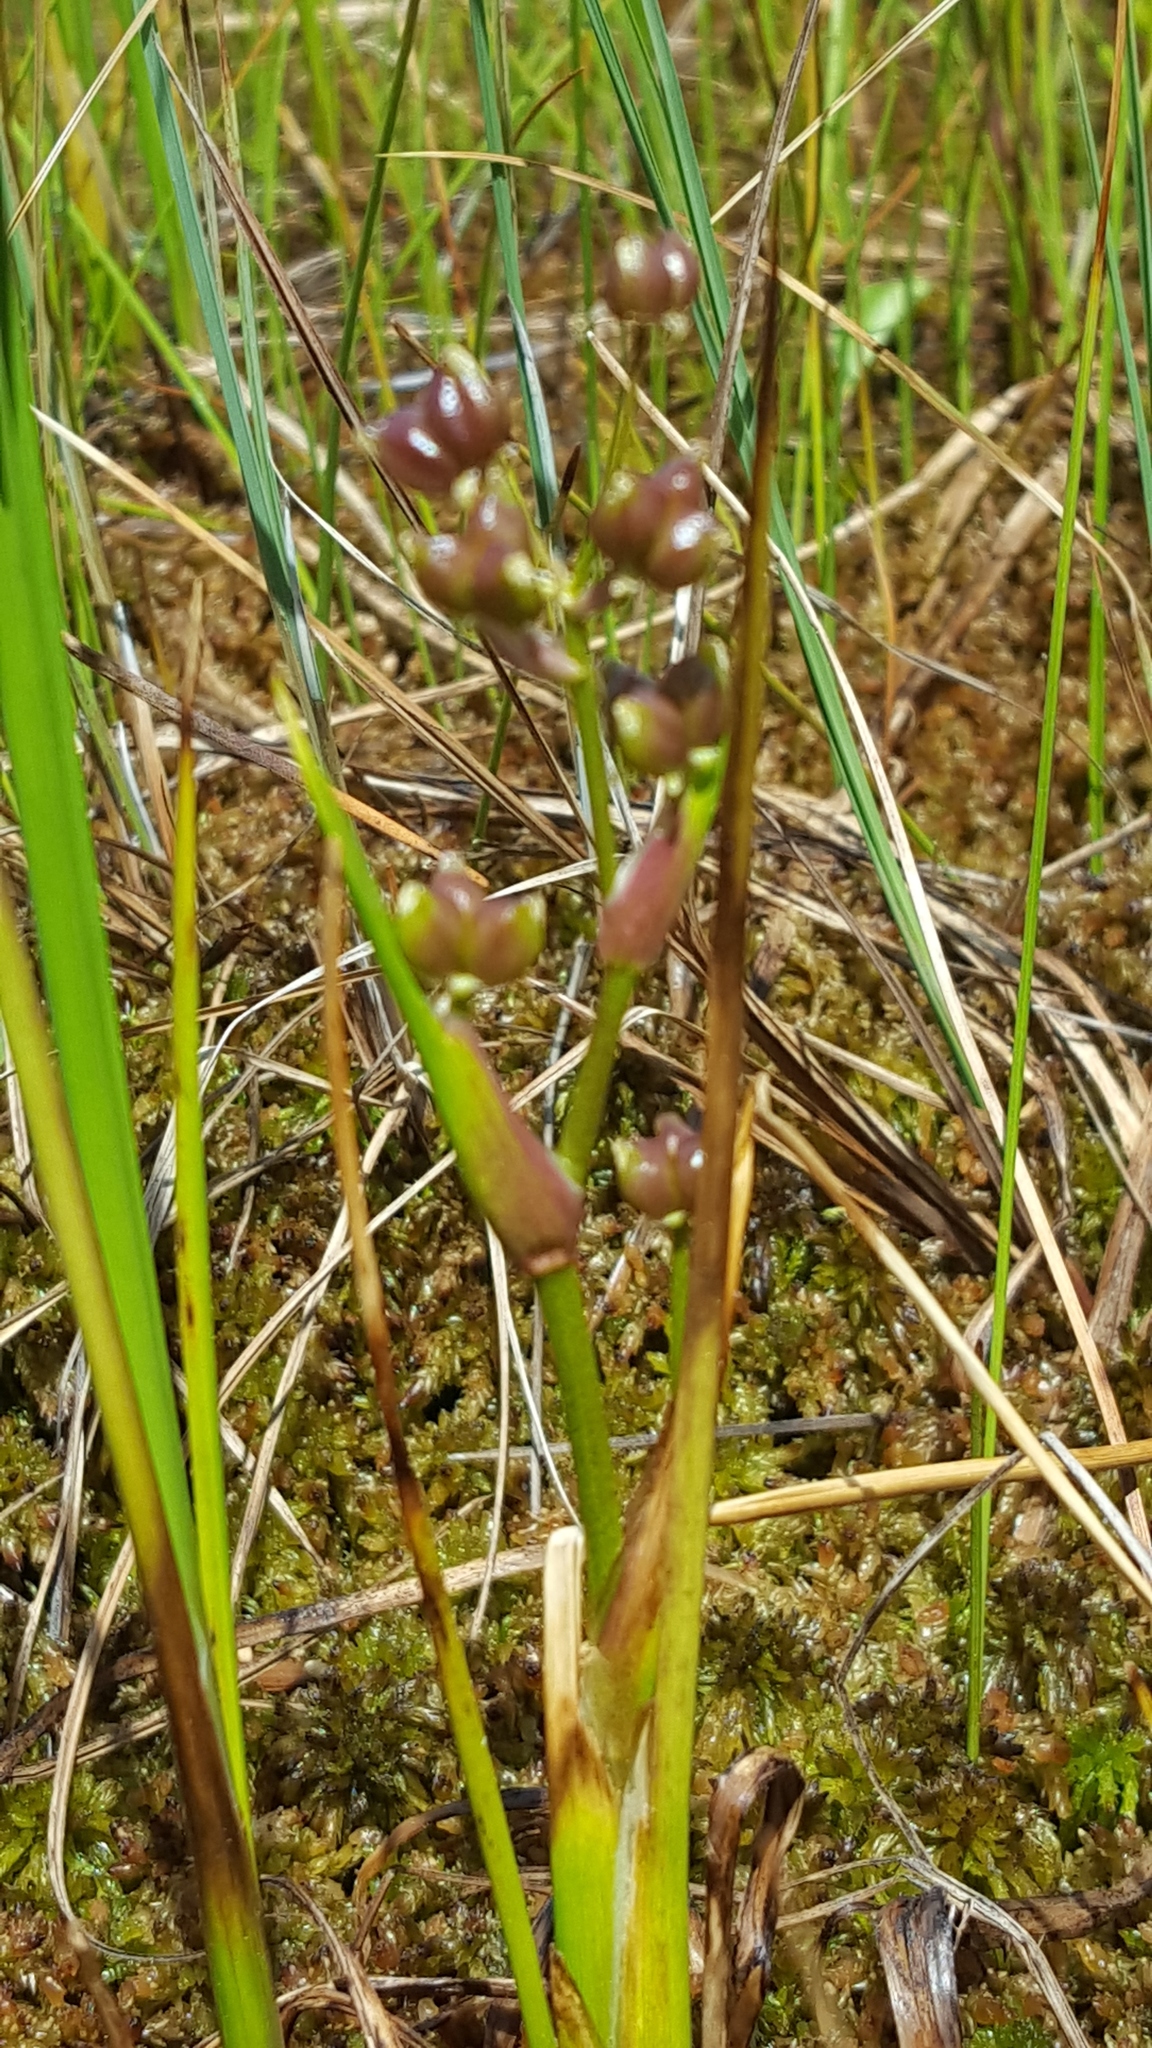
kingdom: Plantae
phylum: Tracheophyta
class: Liliopsida
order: Alismatales
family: Scheuchzeriaceae
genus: Scheuchzeria
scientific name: Scheuchzeria palustris
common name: Rannoch-rush
